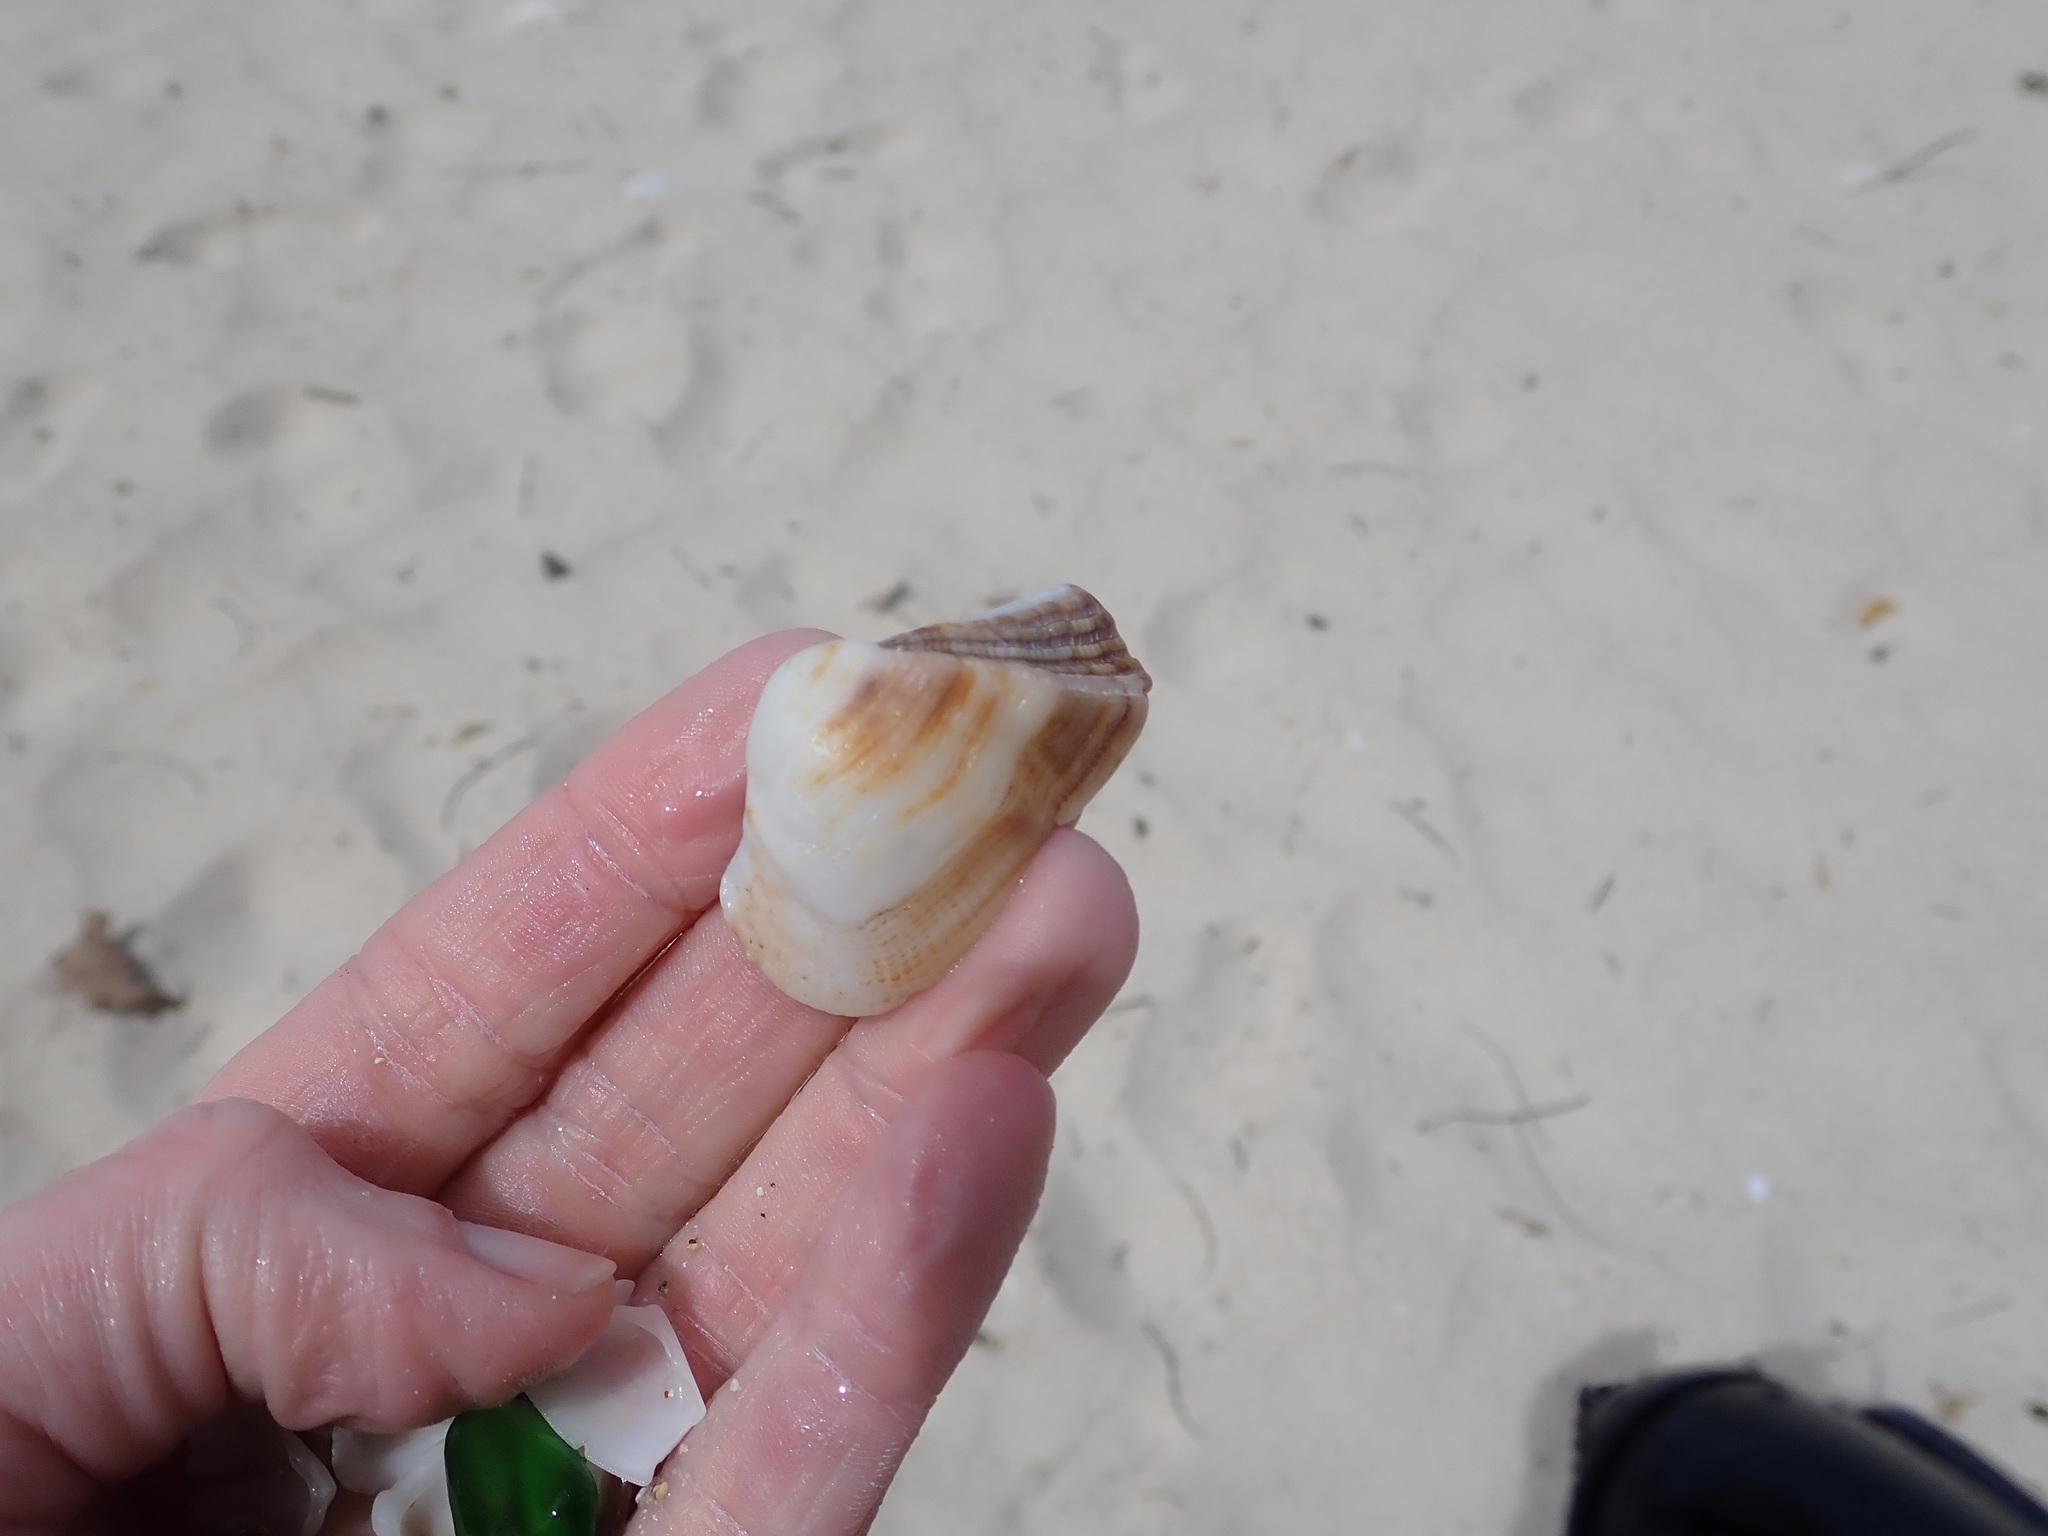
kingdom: Animalia
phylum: Mollusca
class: Bivalvia
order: Arcida
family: Arcidae
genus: Lamarcka
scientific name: Lamarcka imbricata
